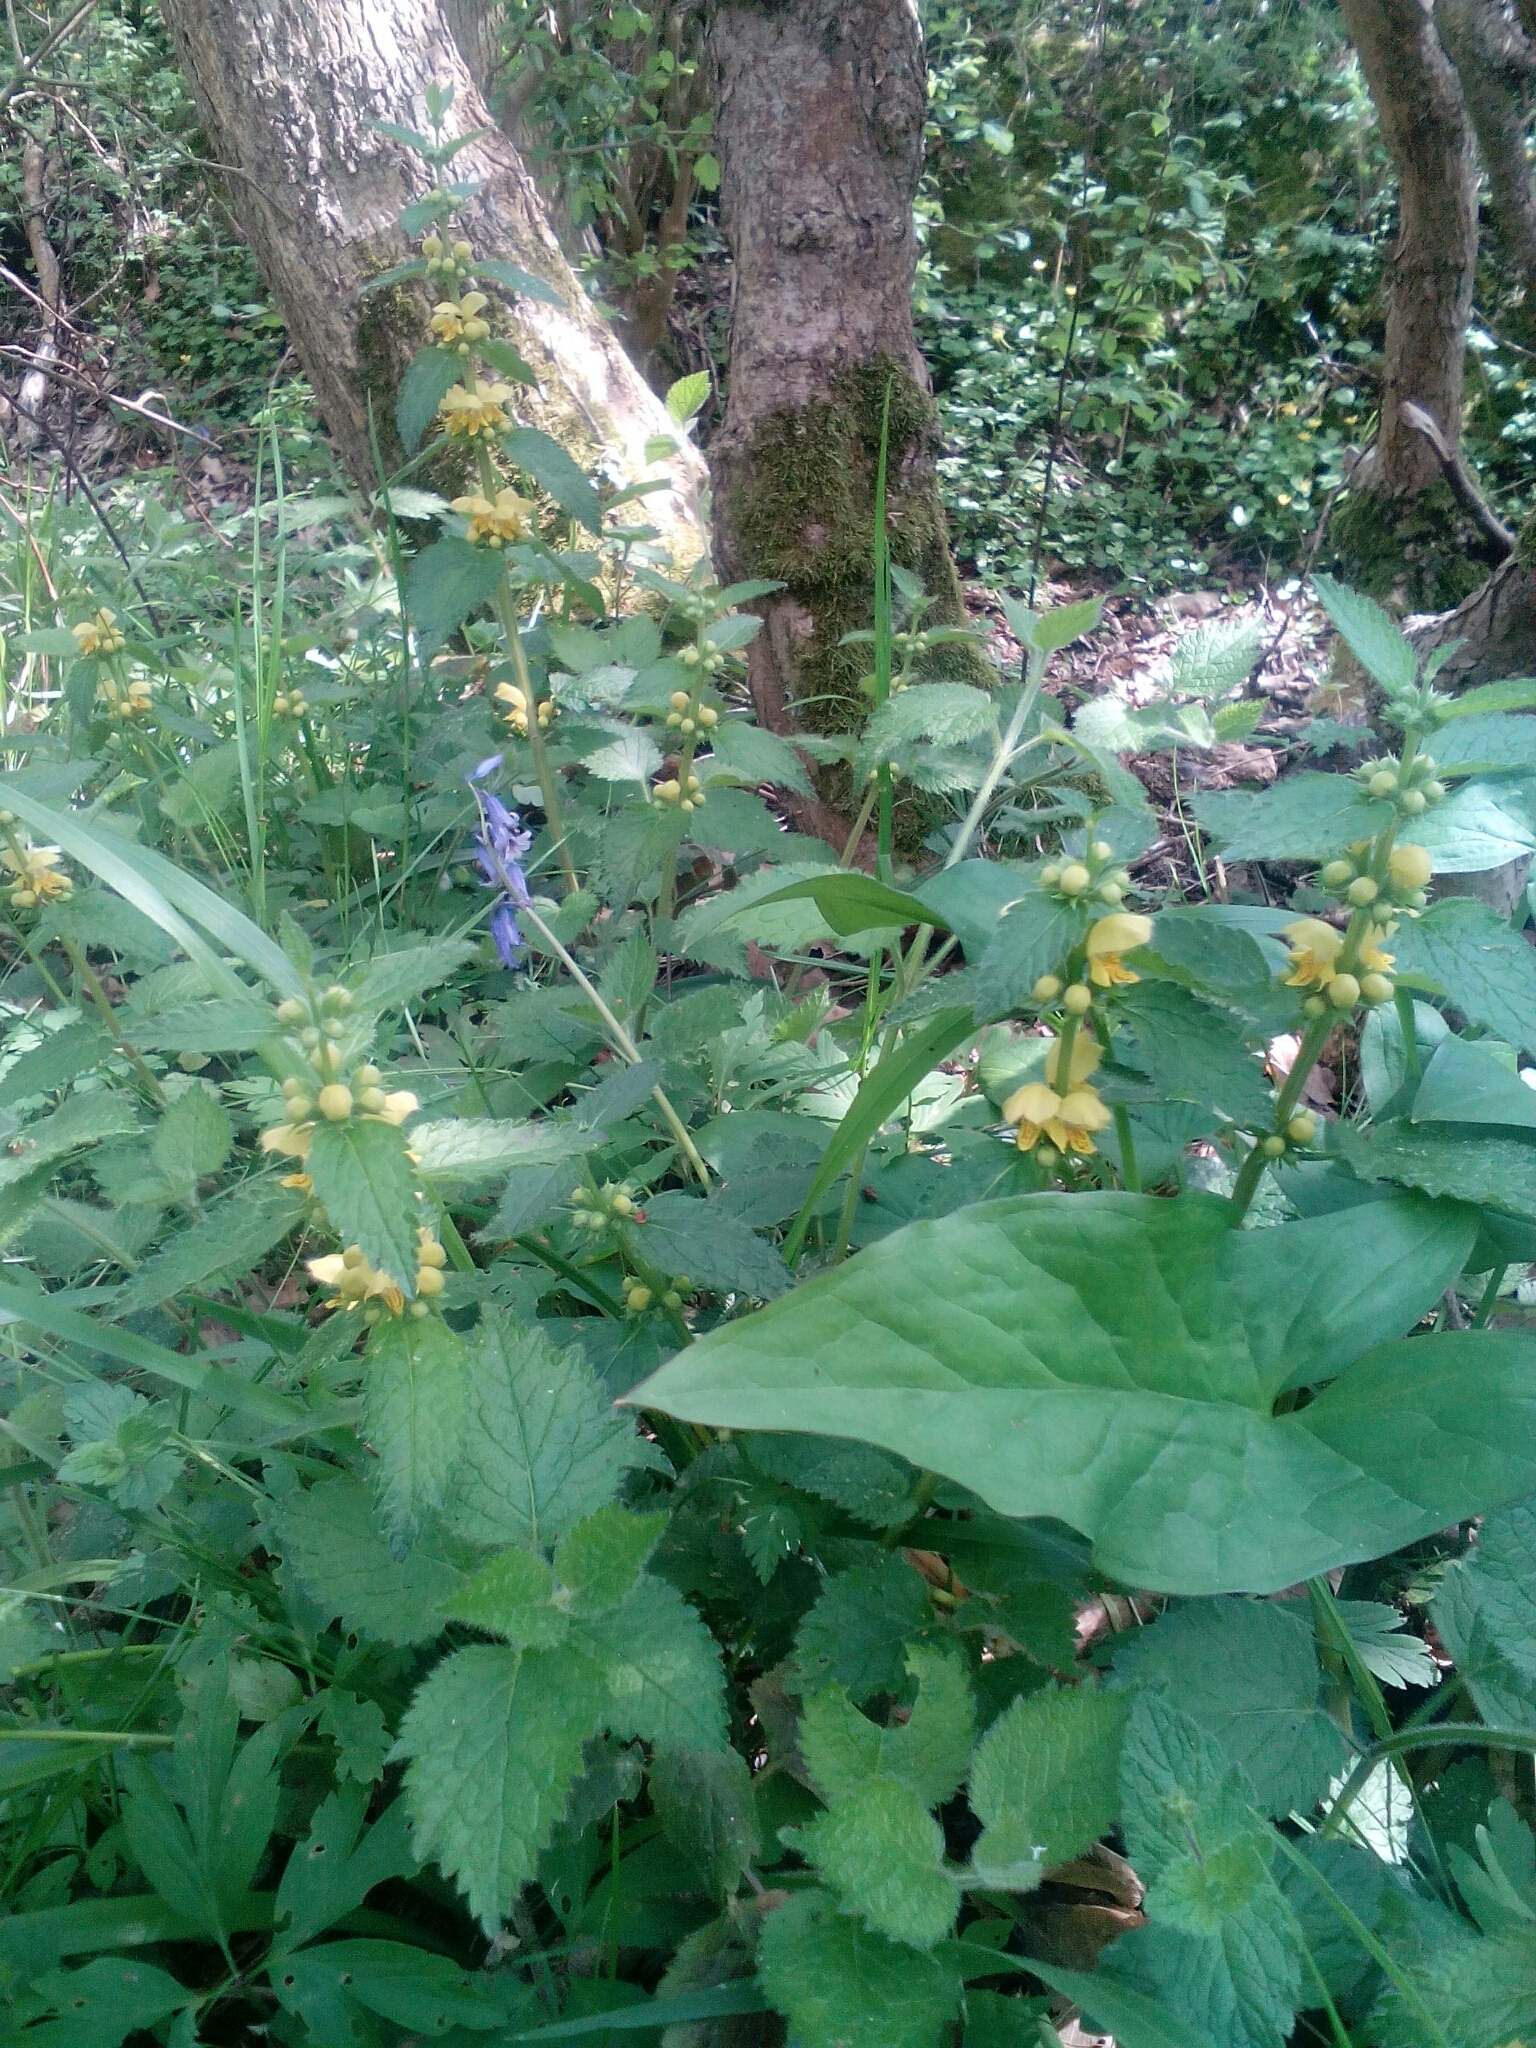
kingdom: Plantae
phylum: Tracheophyta
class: Magnoliopsida
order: Lamiales
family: Lamiaceae
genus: Lamium
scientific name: Lamium galeobdolon
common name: Yellow archangel
